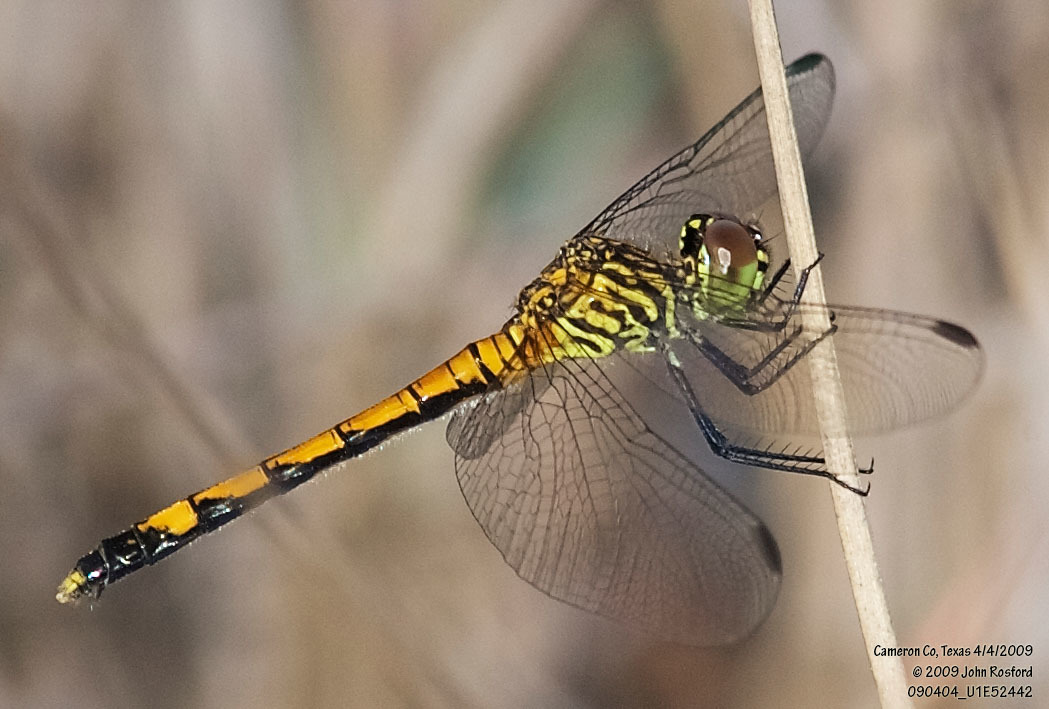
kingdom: Animalia
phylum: Arthropoda
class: Insecta
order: Odonata
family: Libellulidae
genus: Erythrodiplax
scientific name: Erythrodiplax berenice
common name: Seaside dragonlet
